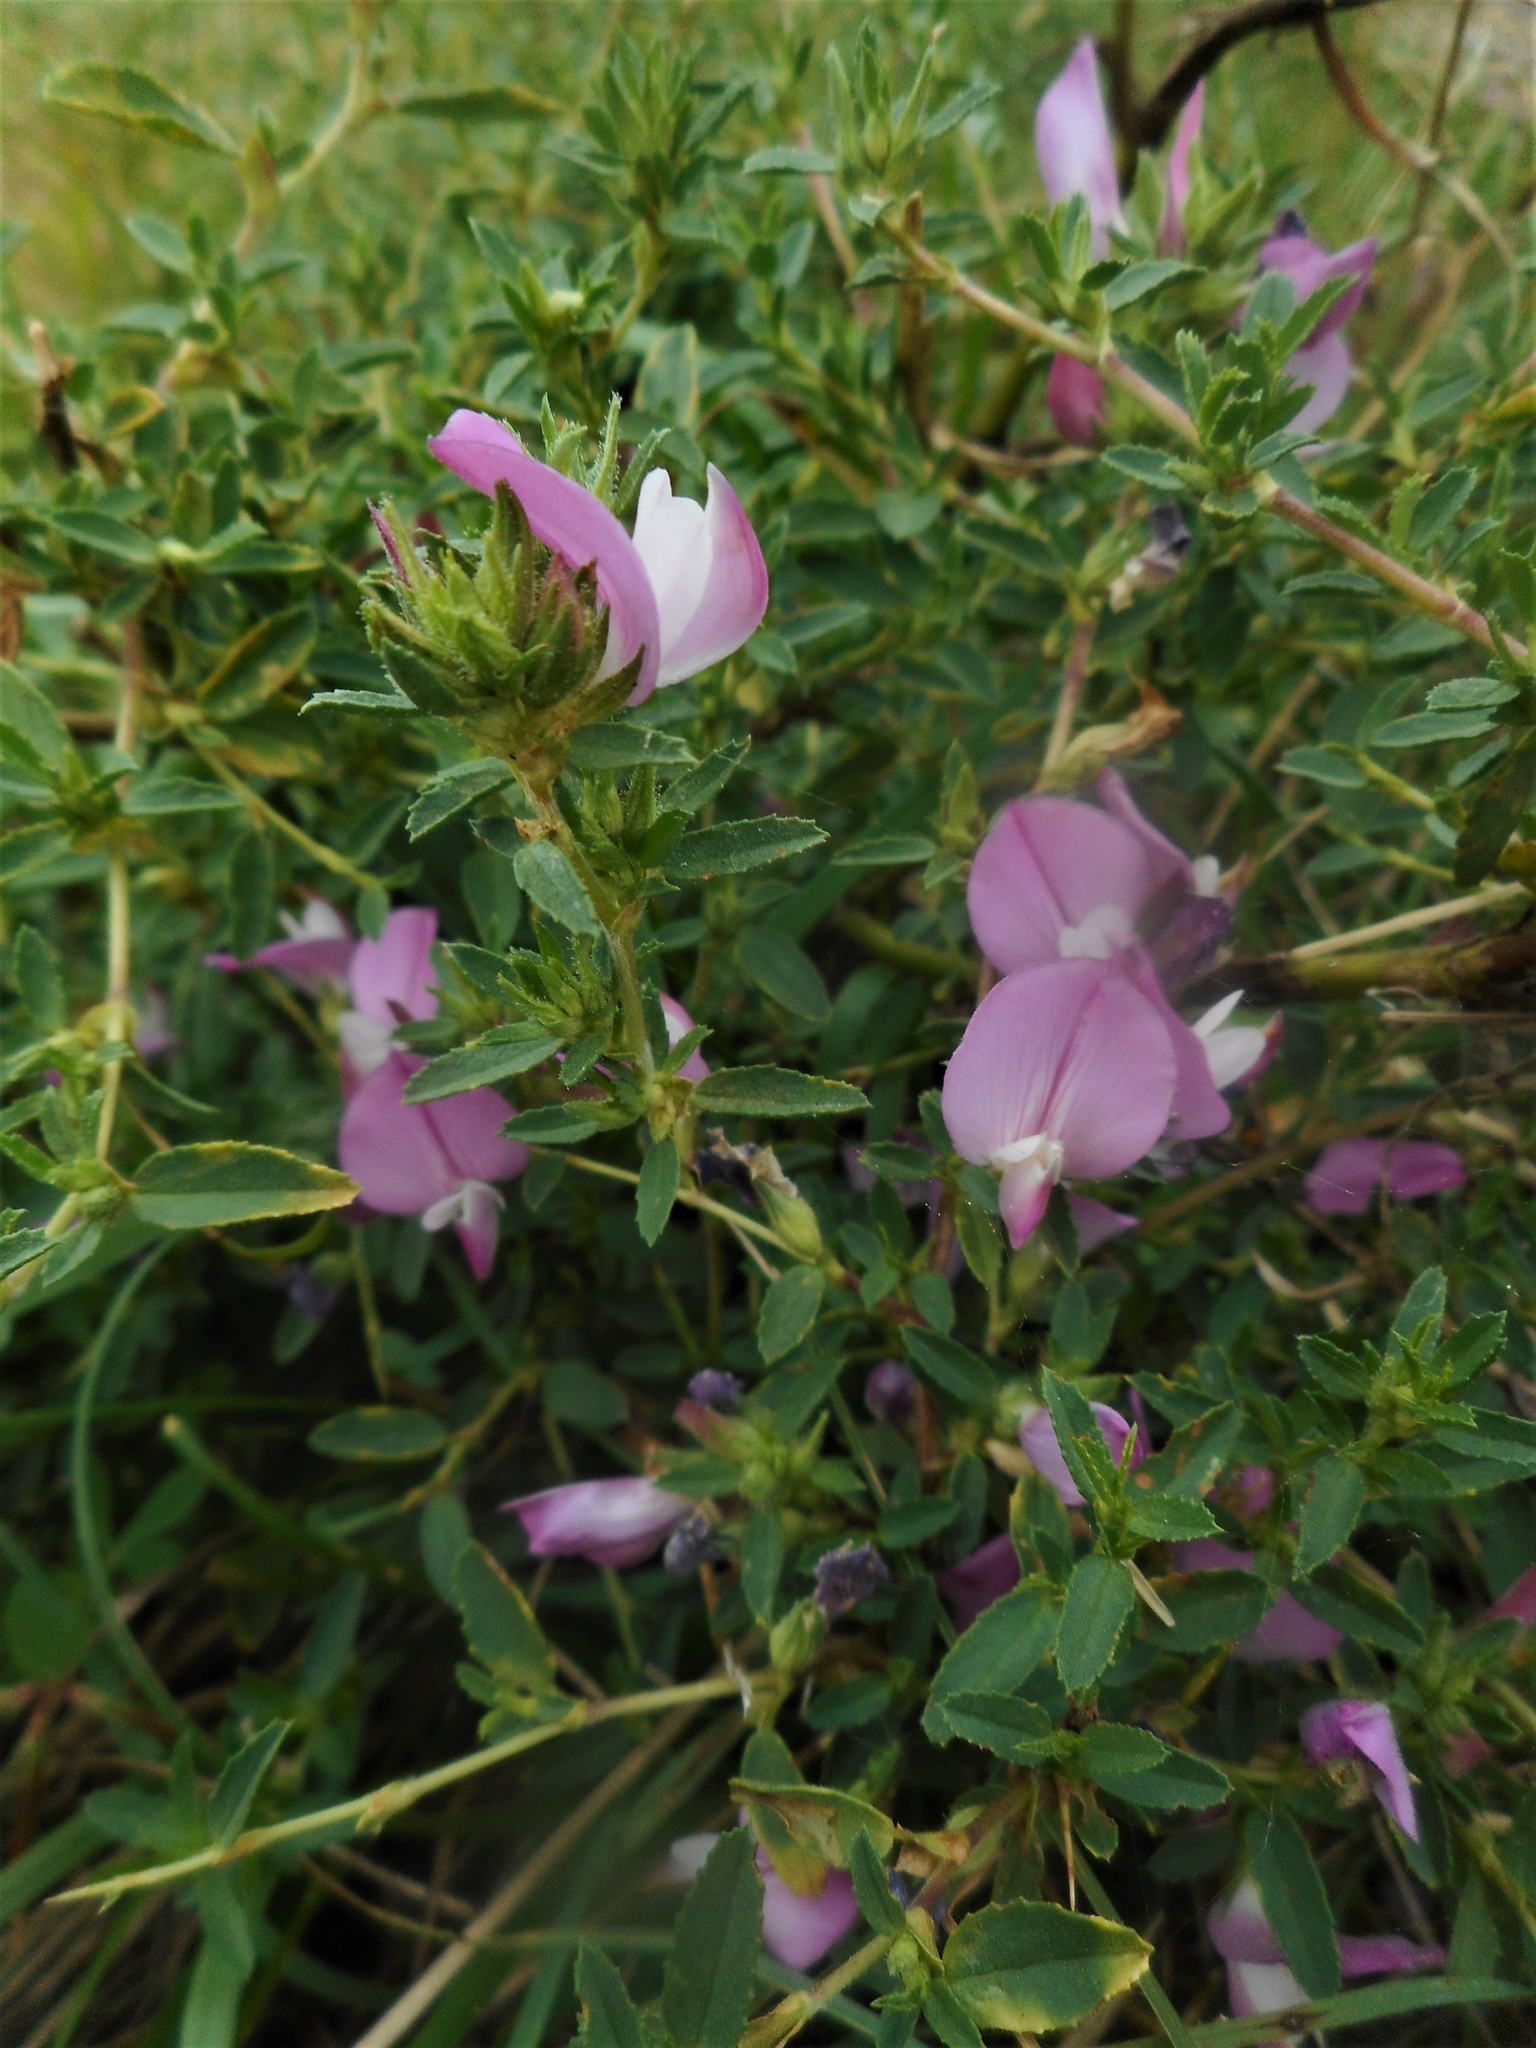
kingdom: Plantae
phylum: Tracheophyta
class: Magnoliopsida
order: Fabales
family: Fabaceae
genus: Ononis
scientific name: Ononis spinosa
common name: Spiny restharrow
